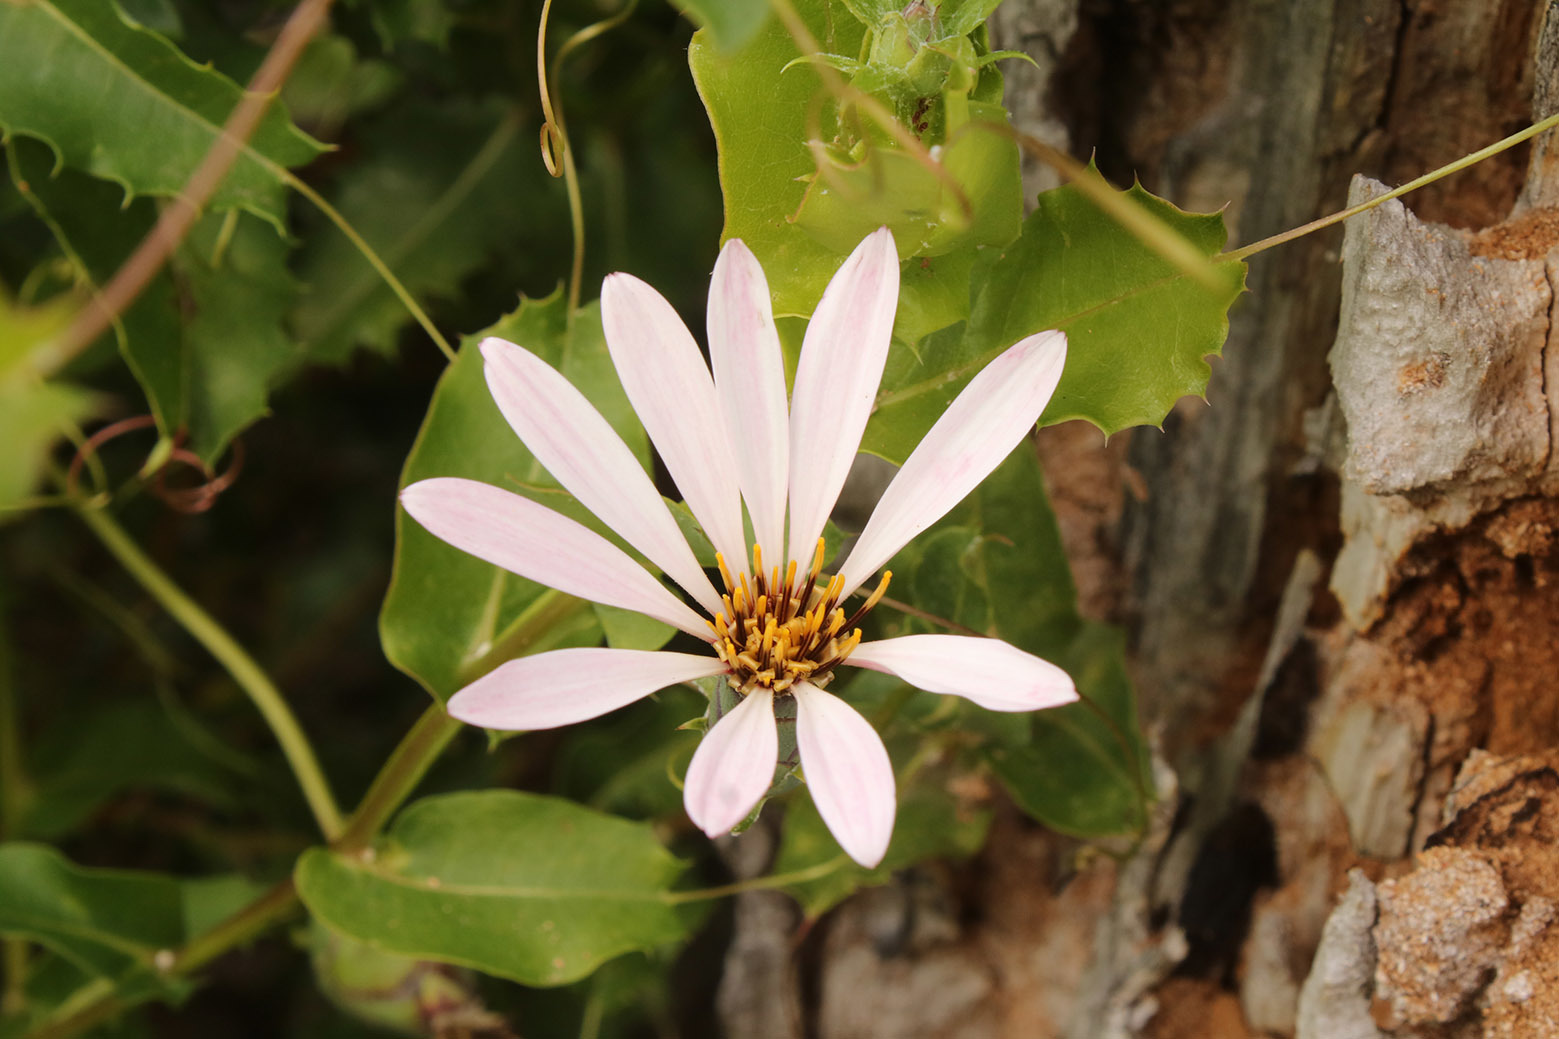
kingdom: Plantae
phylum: Tracheophyta
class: Magnoliopsida
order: Asterales
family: Asteraceae
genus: Mutisia
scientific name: Mutisia spinosa
